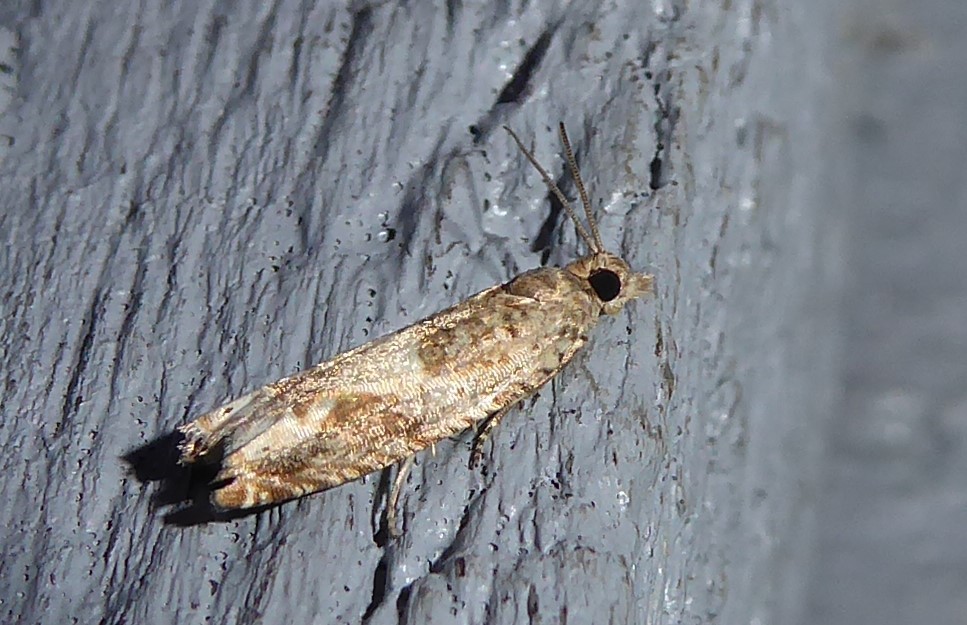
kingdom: Animalia
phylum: Arthropoda
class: Insecta
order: Lepidoptera
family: Tortricidae
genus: Crocidosema
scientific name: Crocidosema plebejana
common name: Southern bell
